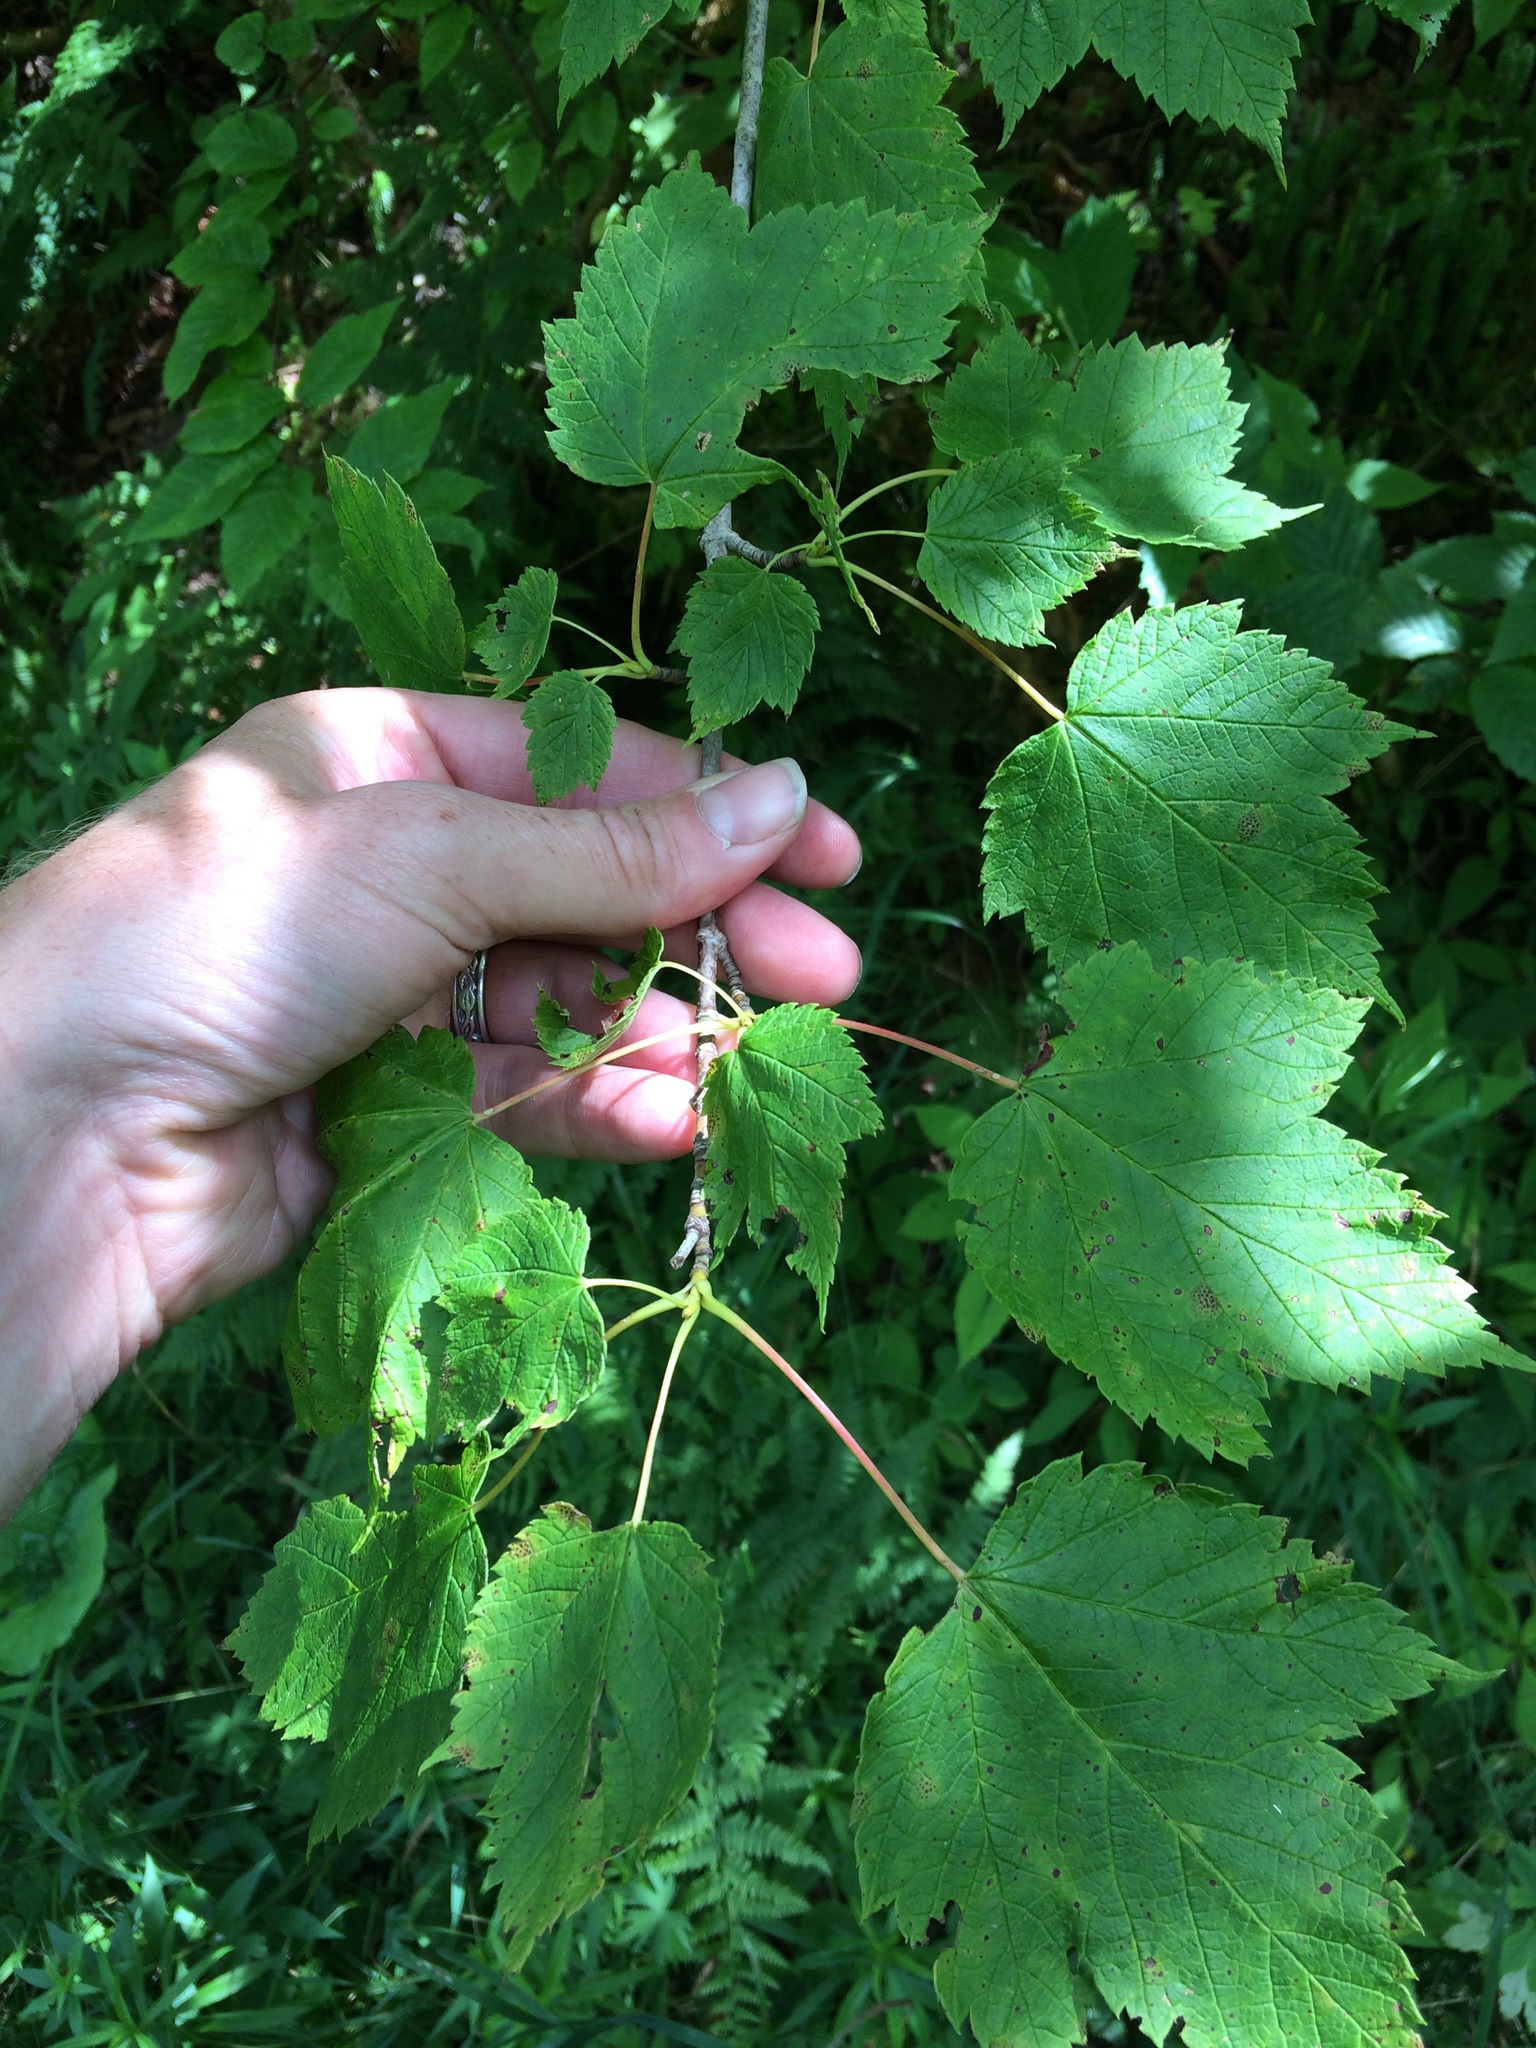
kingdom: Plantae
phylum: Tracheophyta
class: Magnoliopsida
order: Sapindales
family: Sapindaceae
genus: Acer
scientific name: Acer spicatum
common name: Mountain maple
